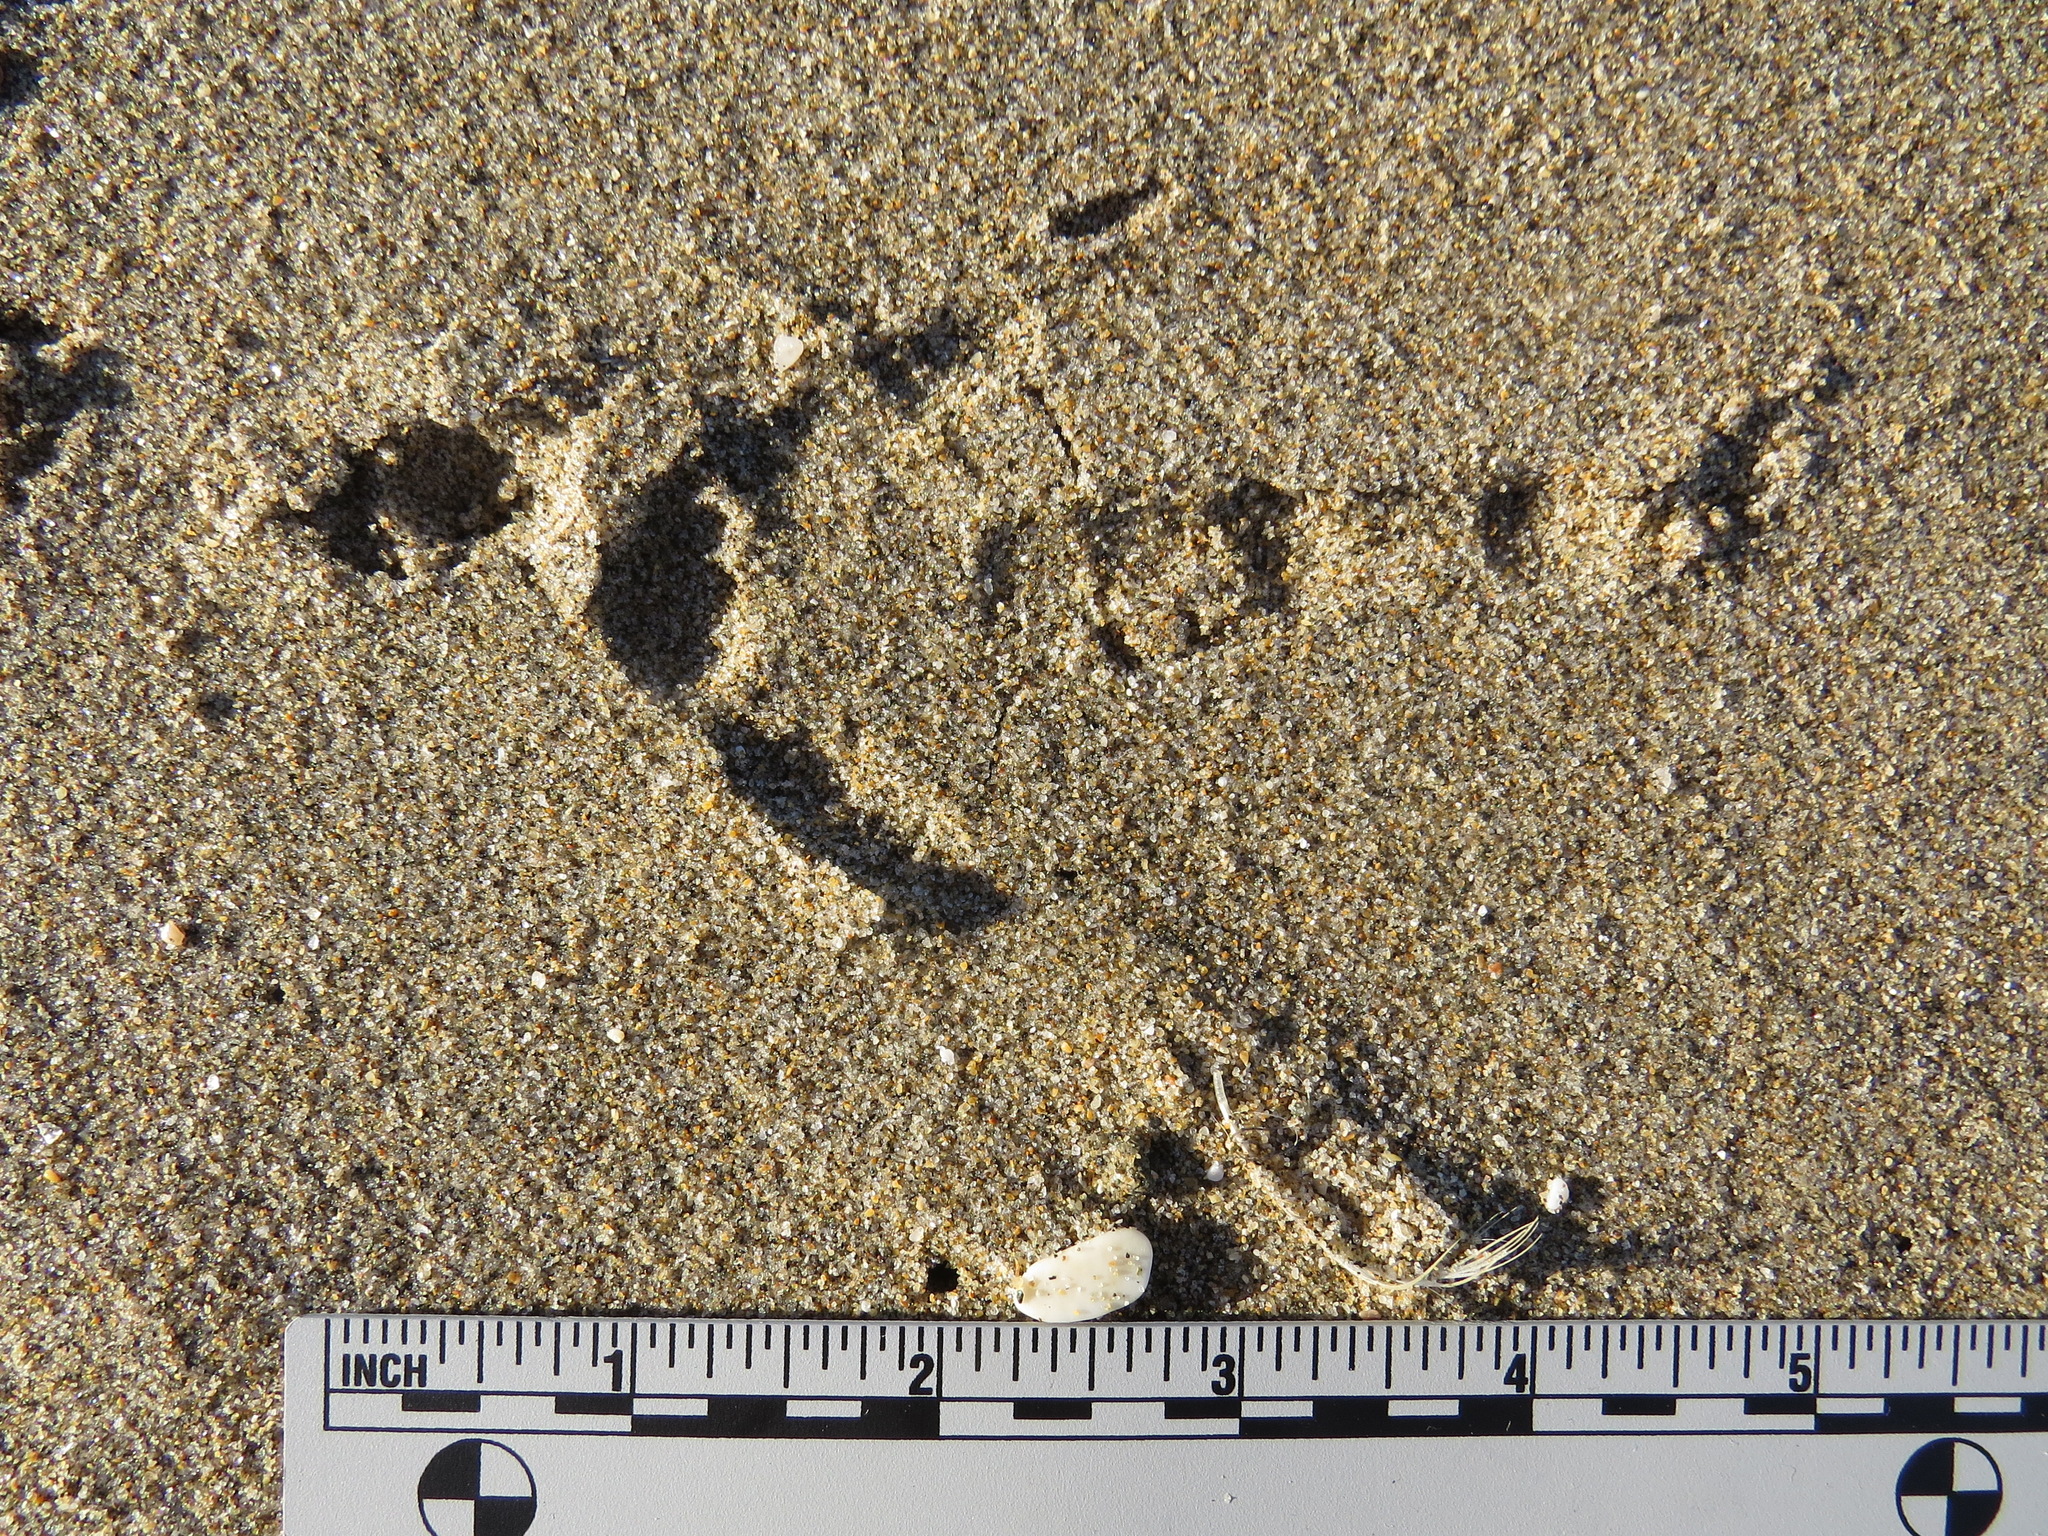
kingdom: Animalia
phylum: Chordata
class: Aves
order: Accipitriformes
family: Cathartidae
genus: Cathartes
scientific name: Cathartes aura
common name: Turkey vulture
